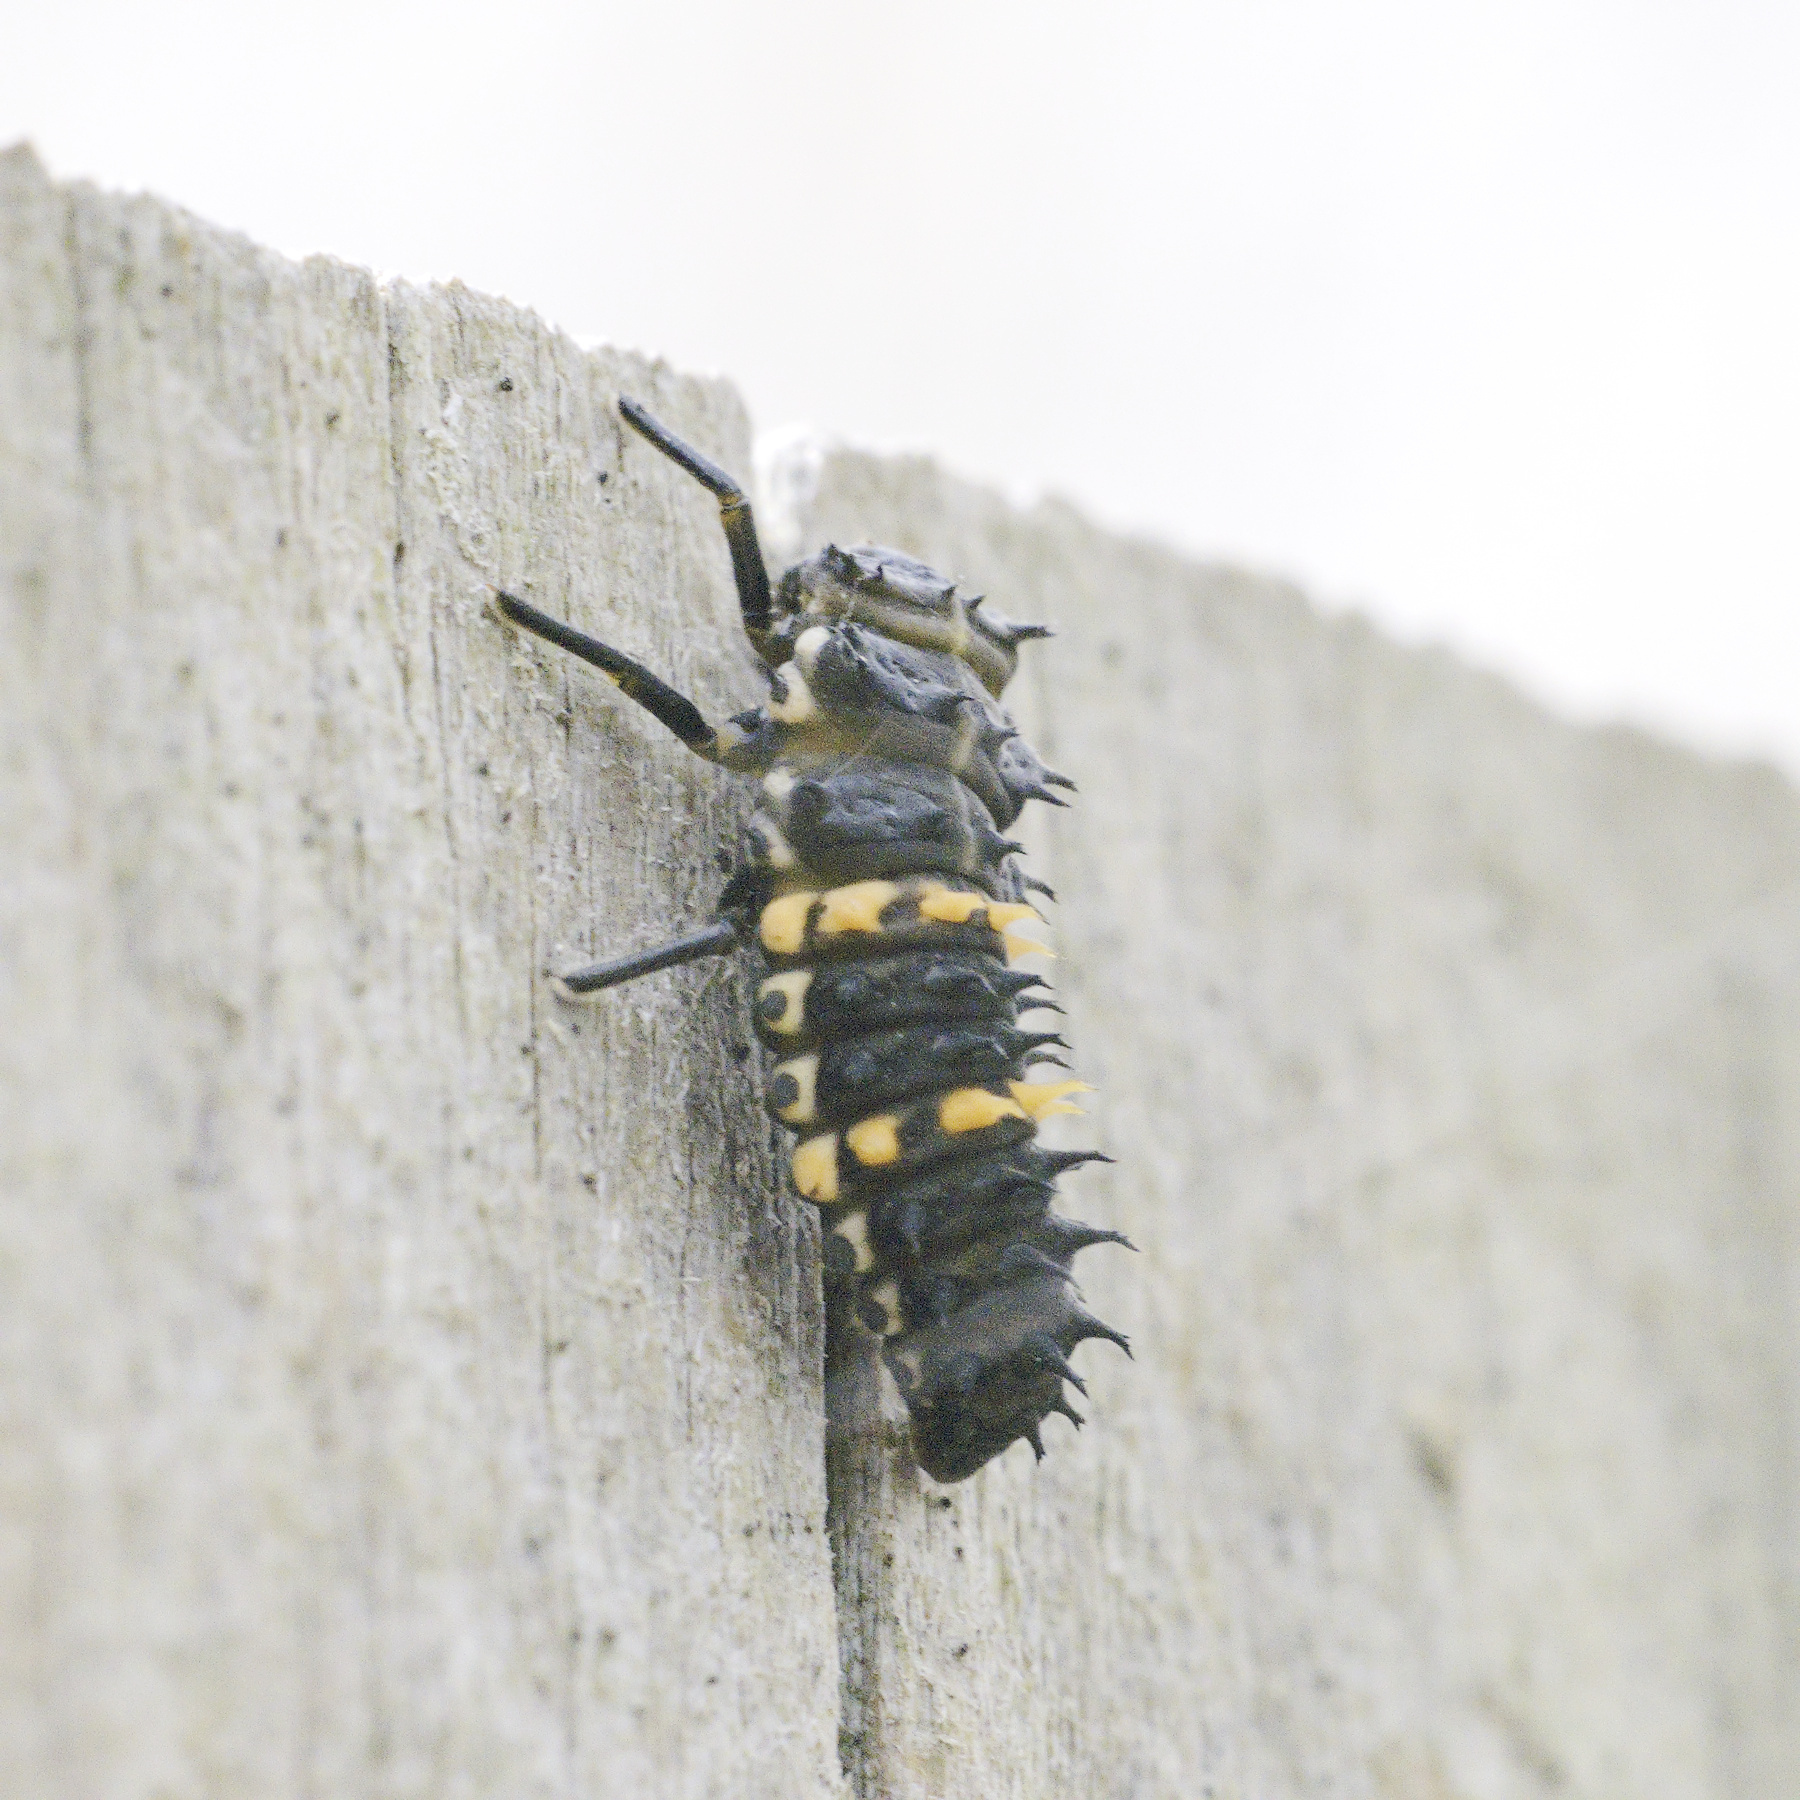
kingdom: Animalia
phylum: Arthropoda
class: Insecta
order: Coleoptera
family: Coccinellidae
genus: Harmonia
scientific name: Harmonia conformis
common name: Common spotted ladybird beetle
